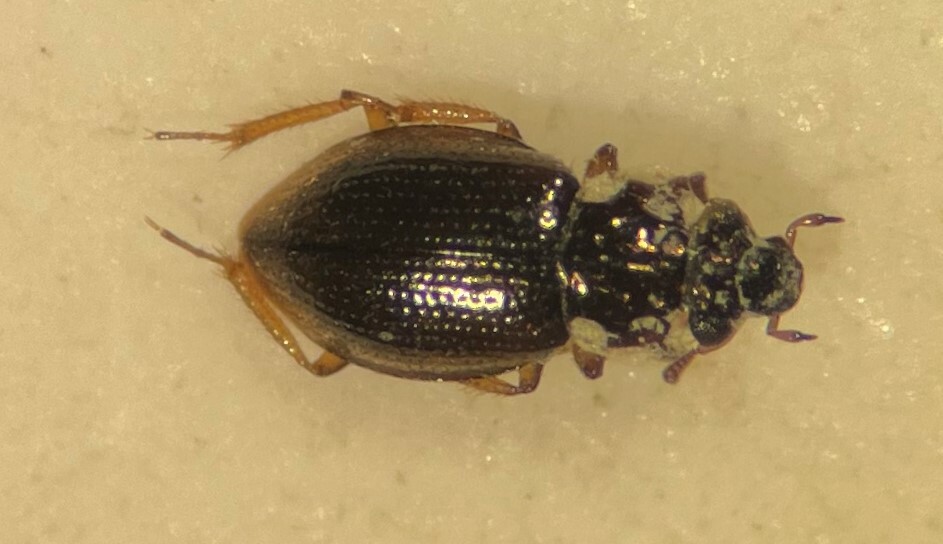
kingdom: Animalia
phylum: Arthropoda
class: Insecta
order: Coleoptera
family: Hydraenidae
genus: Gymnochthebius
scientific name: Gymnochthebius fossatus
